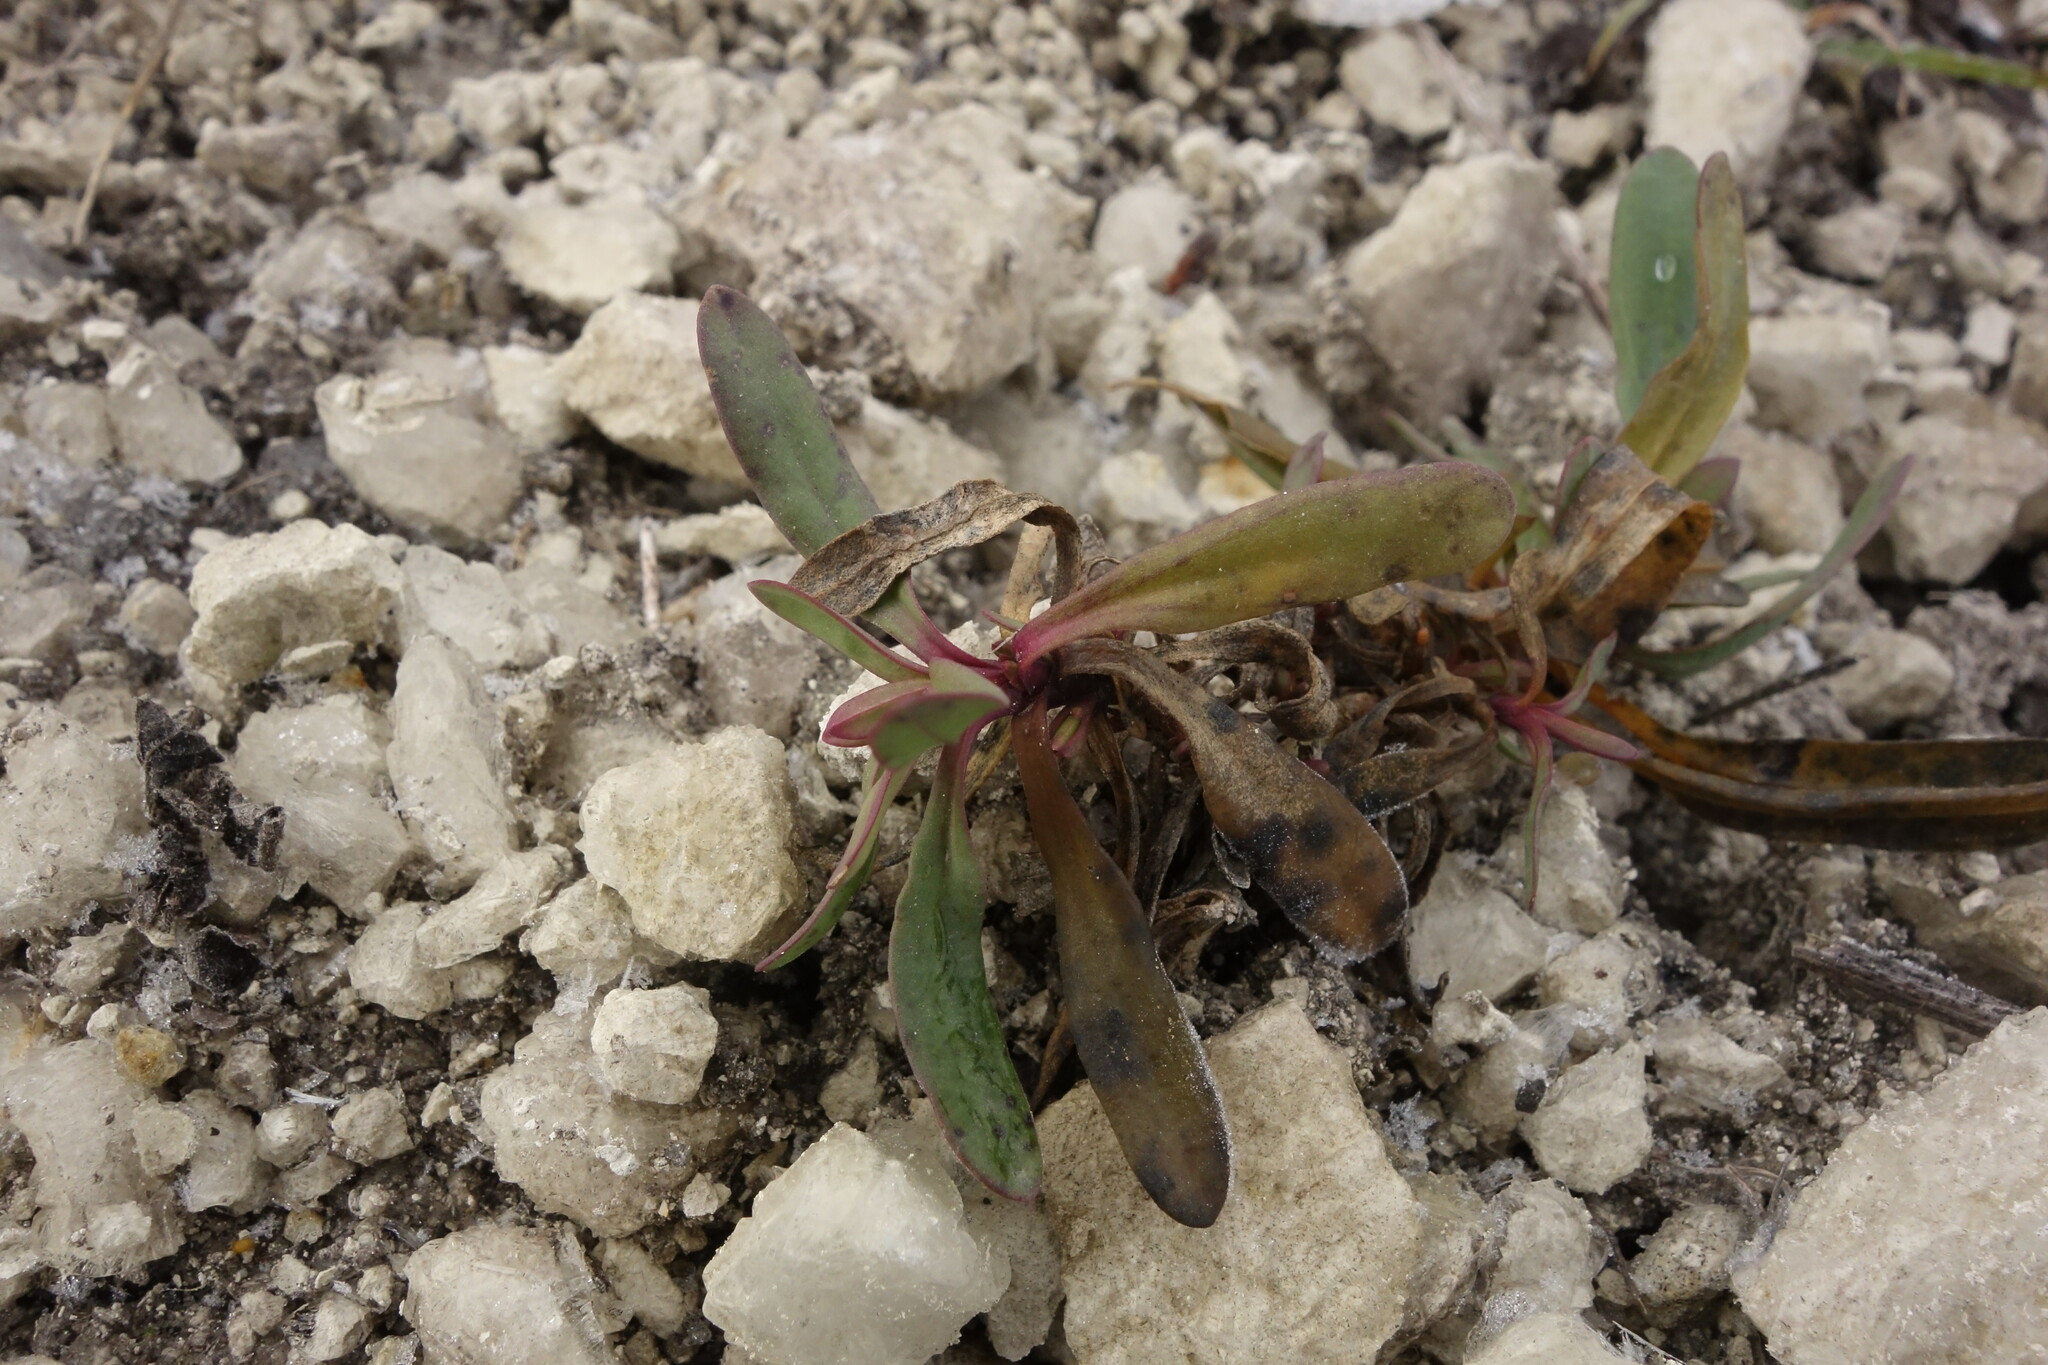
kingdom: Plantae
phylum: Tracheophyta
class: Magnoliopsida
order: Caryophyllales
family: Caryophyllaceae
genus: Gypsophila
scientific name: Gypsophila altissima
